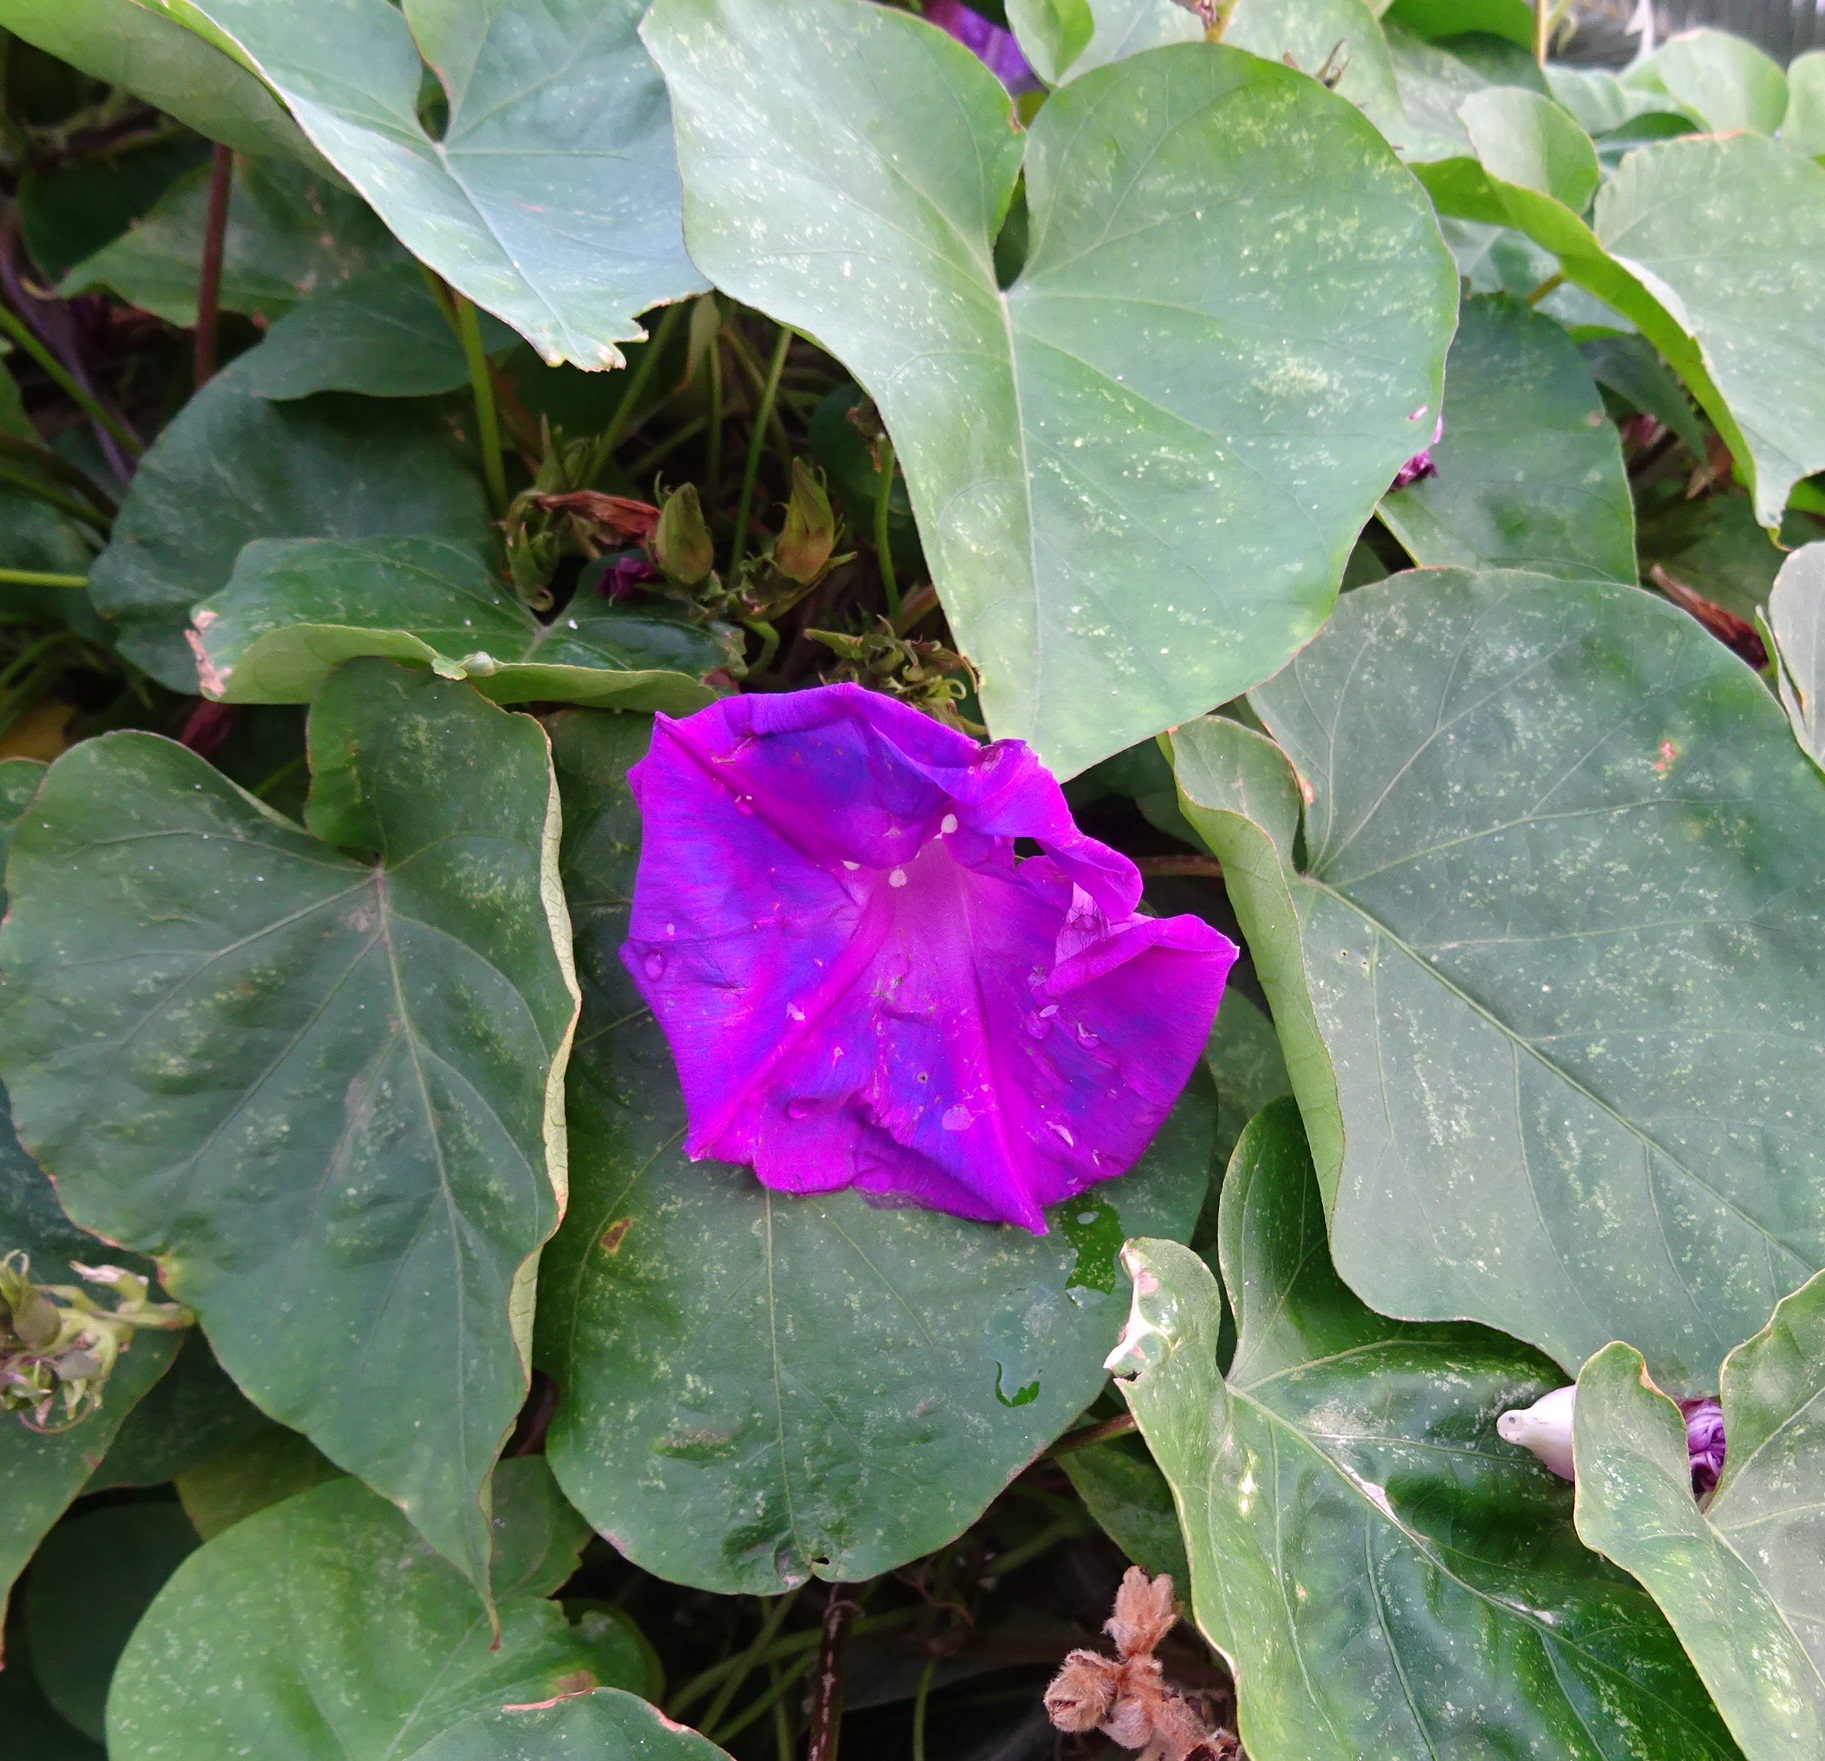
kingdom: Plantae
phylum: Tracheophyta
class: Magnoliopsida
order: Solanales
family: Convolvulaceae
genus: Ipomoea
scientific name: Ipomoea indica
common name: Blue dawnflower
